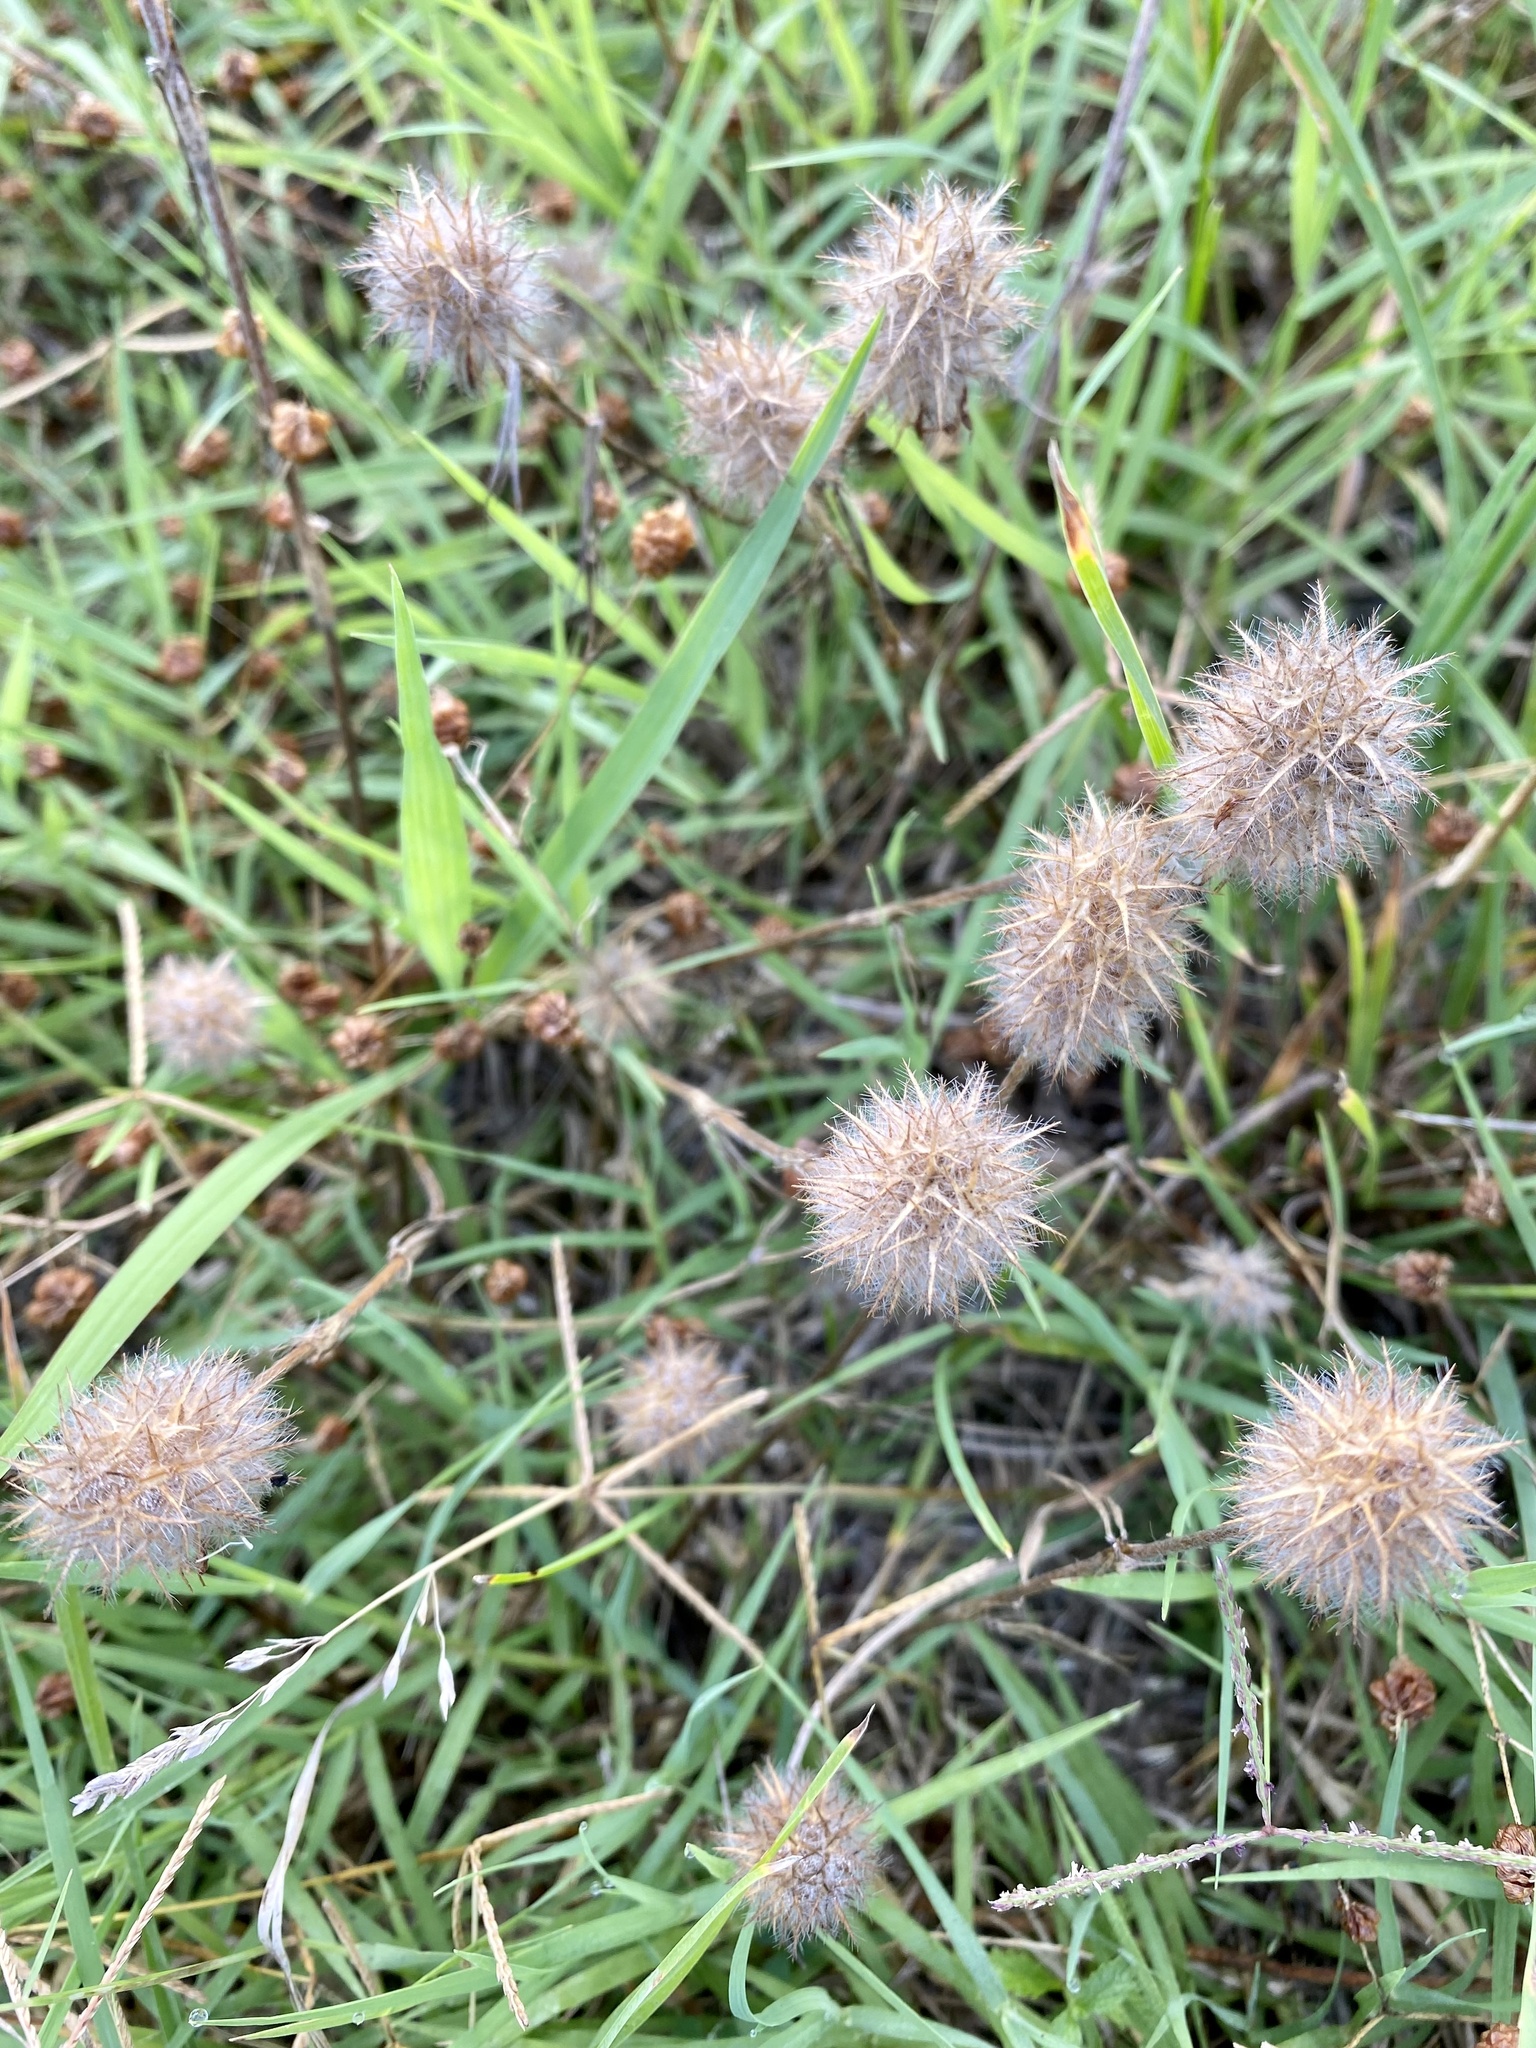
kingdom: Plantae
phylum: Tracheophyta
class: Magnoliopsida
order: Fabales
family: Fabaceae
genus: Trifolium
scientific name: Trifolium arvense
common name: Hare's-foot clover
